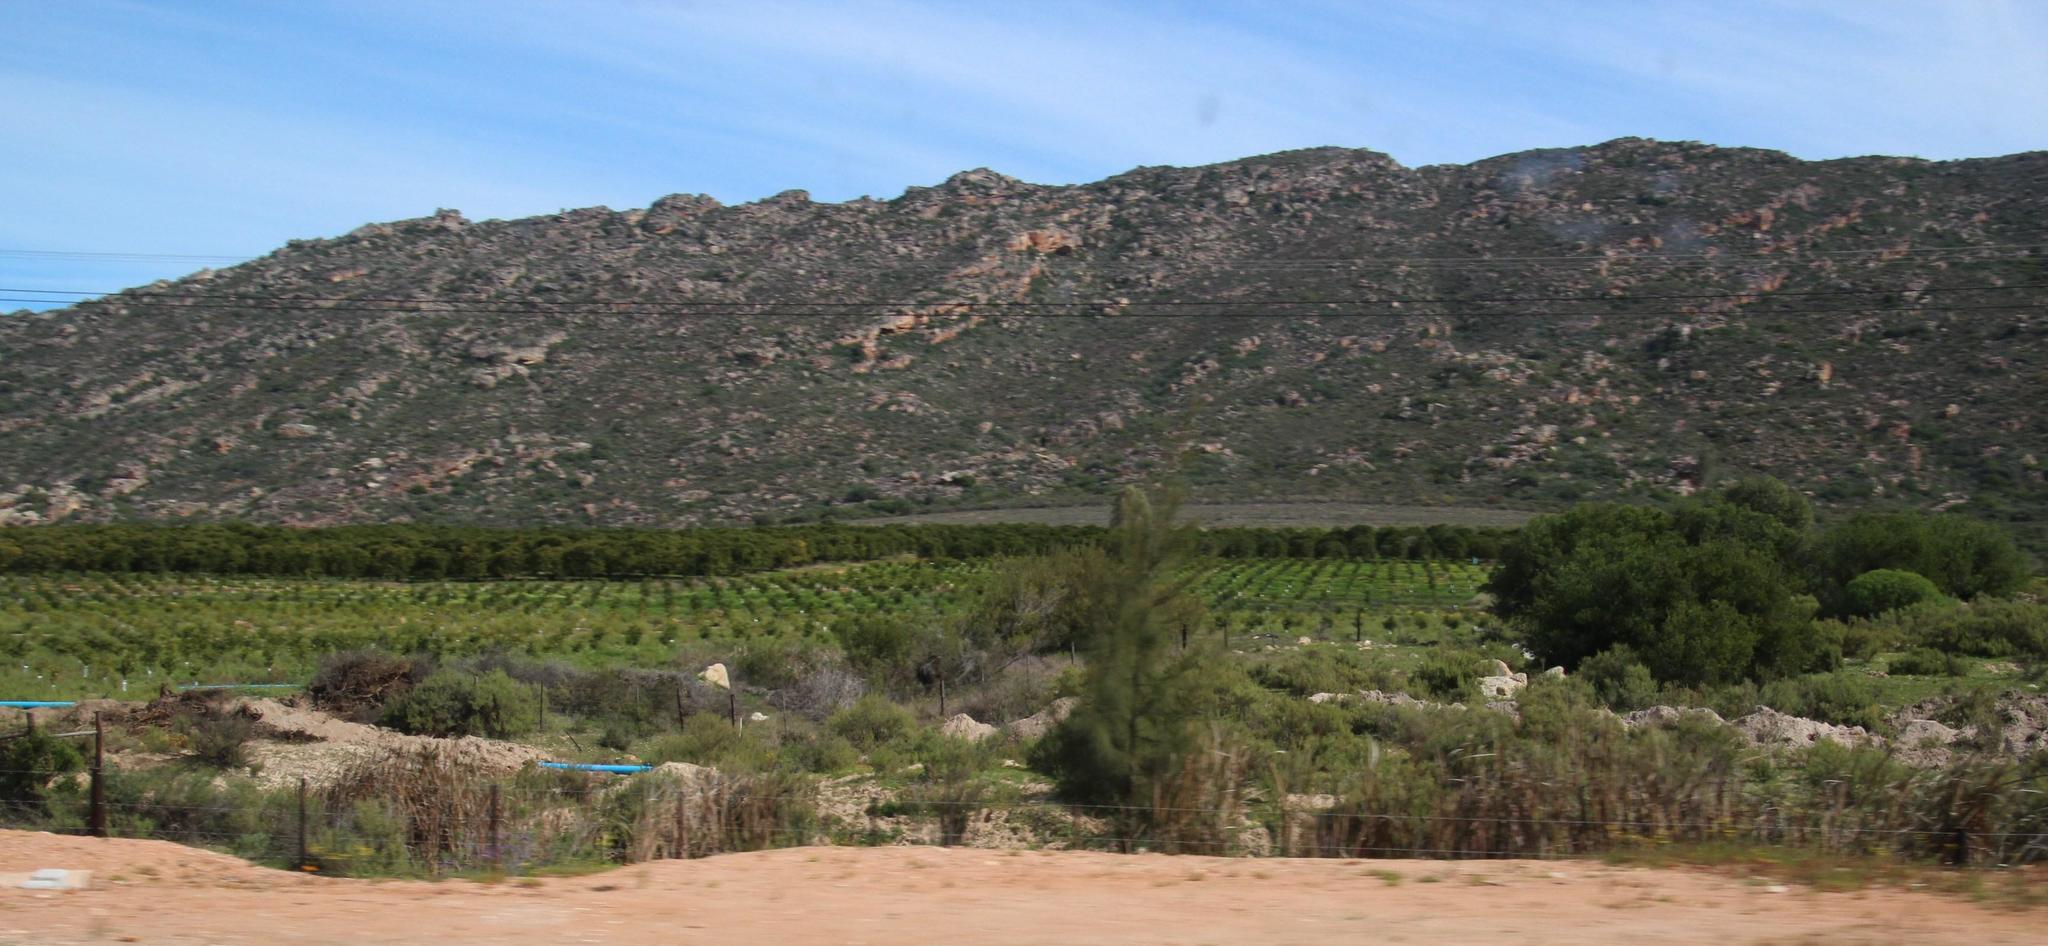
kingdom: Plantae
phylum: Tracheophyta
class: Magnoliopsida
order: Fagales
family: Casuarinaceae
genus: Casuarina
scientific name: Casuarina cunninghamiana
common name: River sheoak
